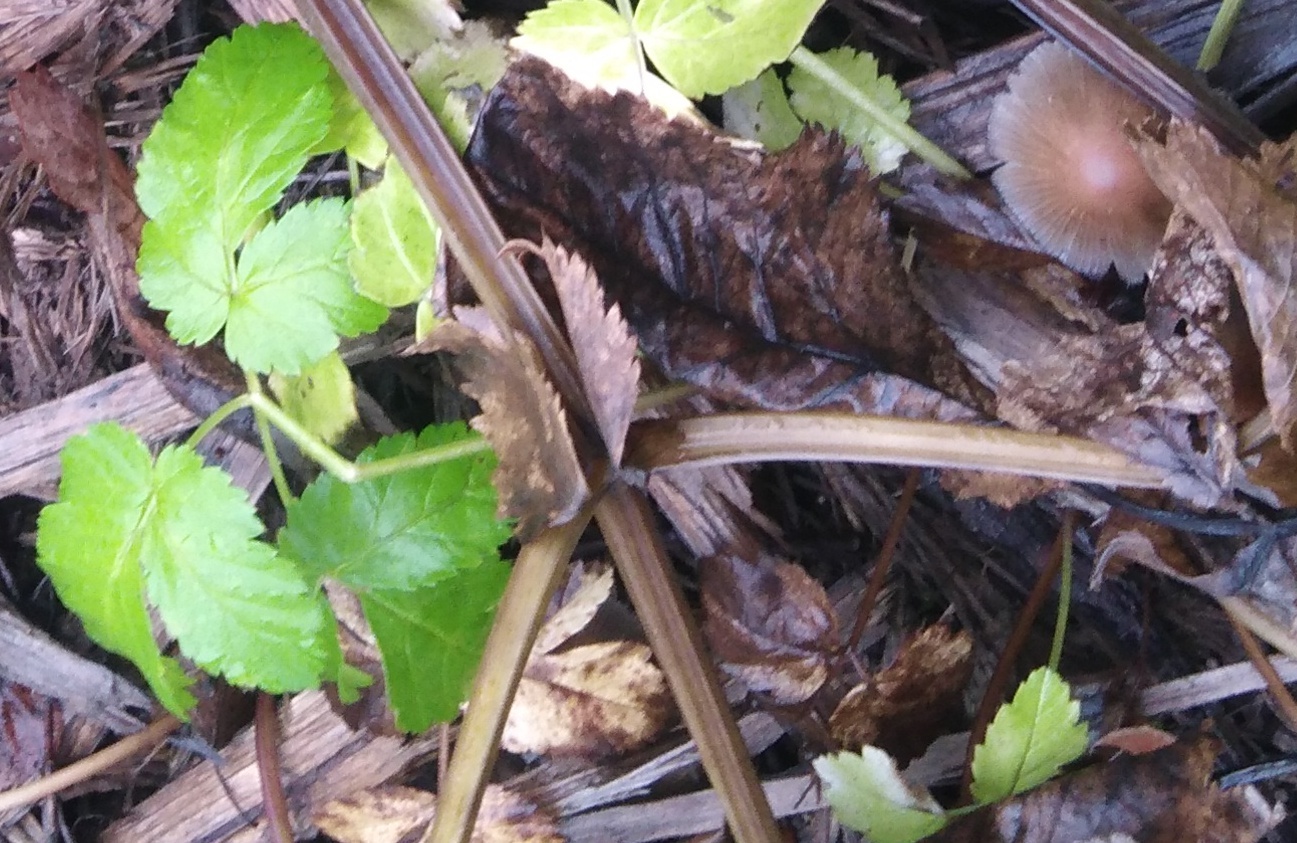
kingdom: Plantae
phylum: Tracheophyta
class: Magnoliopsida
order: Apiales
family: Apiaceae
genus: Aegopodium
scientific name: Aegopodium podagraria
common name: Ground-elder
